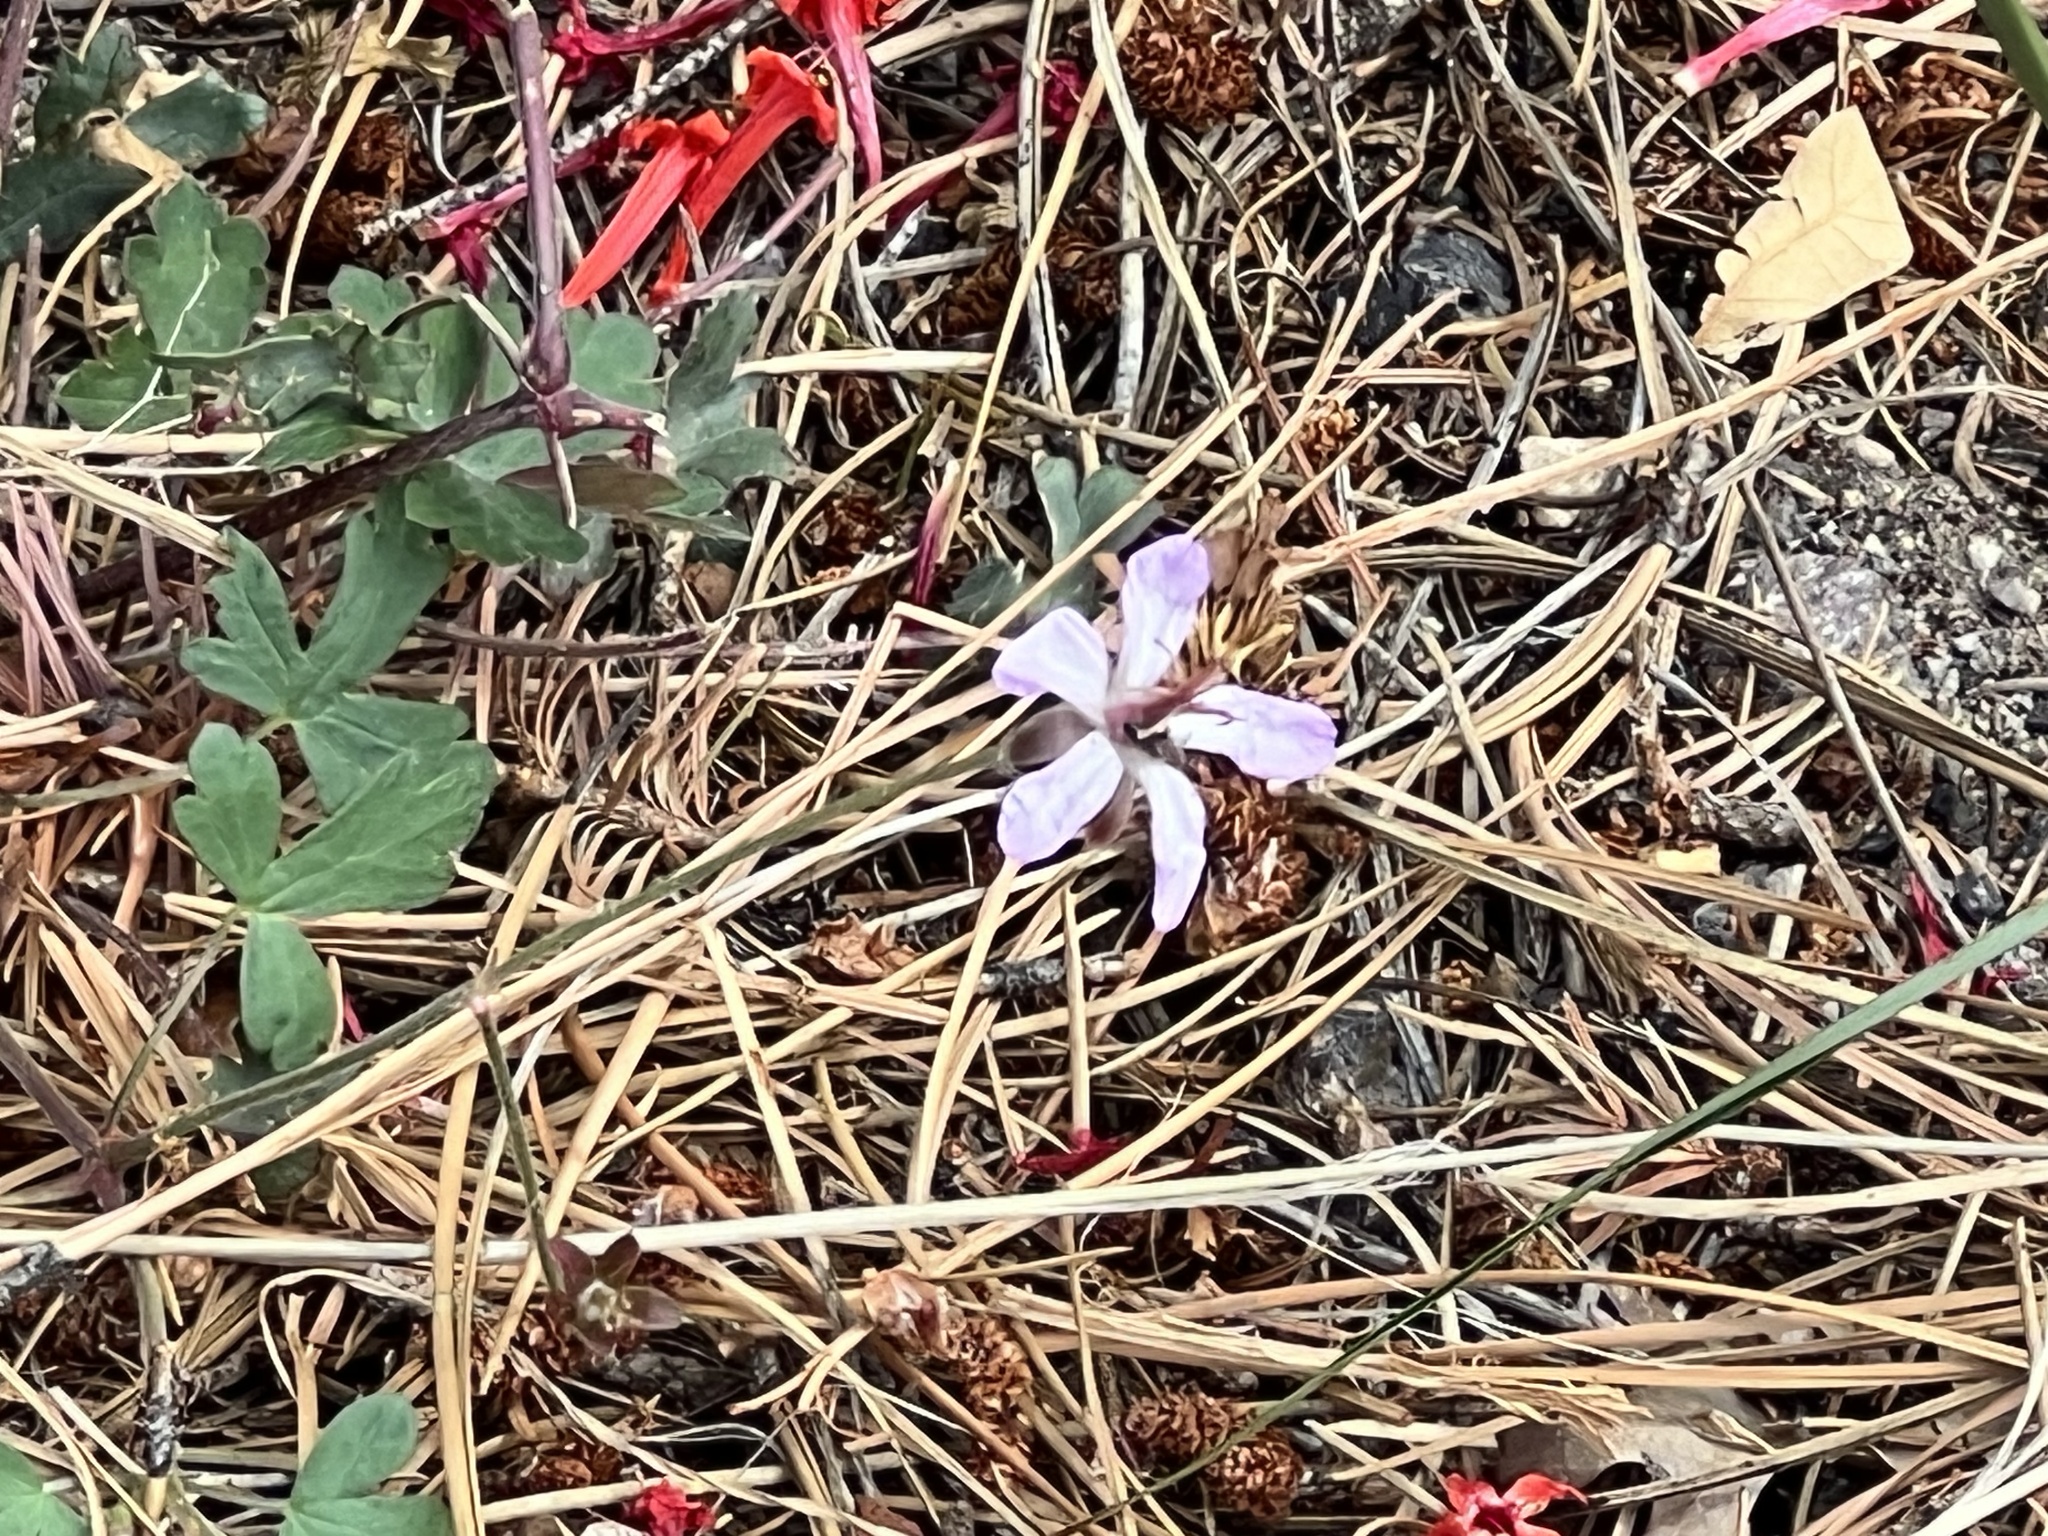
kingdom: Plantae
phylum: Tracheophyta
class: Magnoliopsida
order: Geraniales
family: Geraniaceae
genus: Geranium
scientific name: Geranium caespitosum
